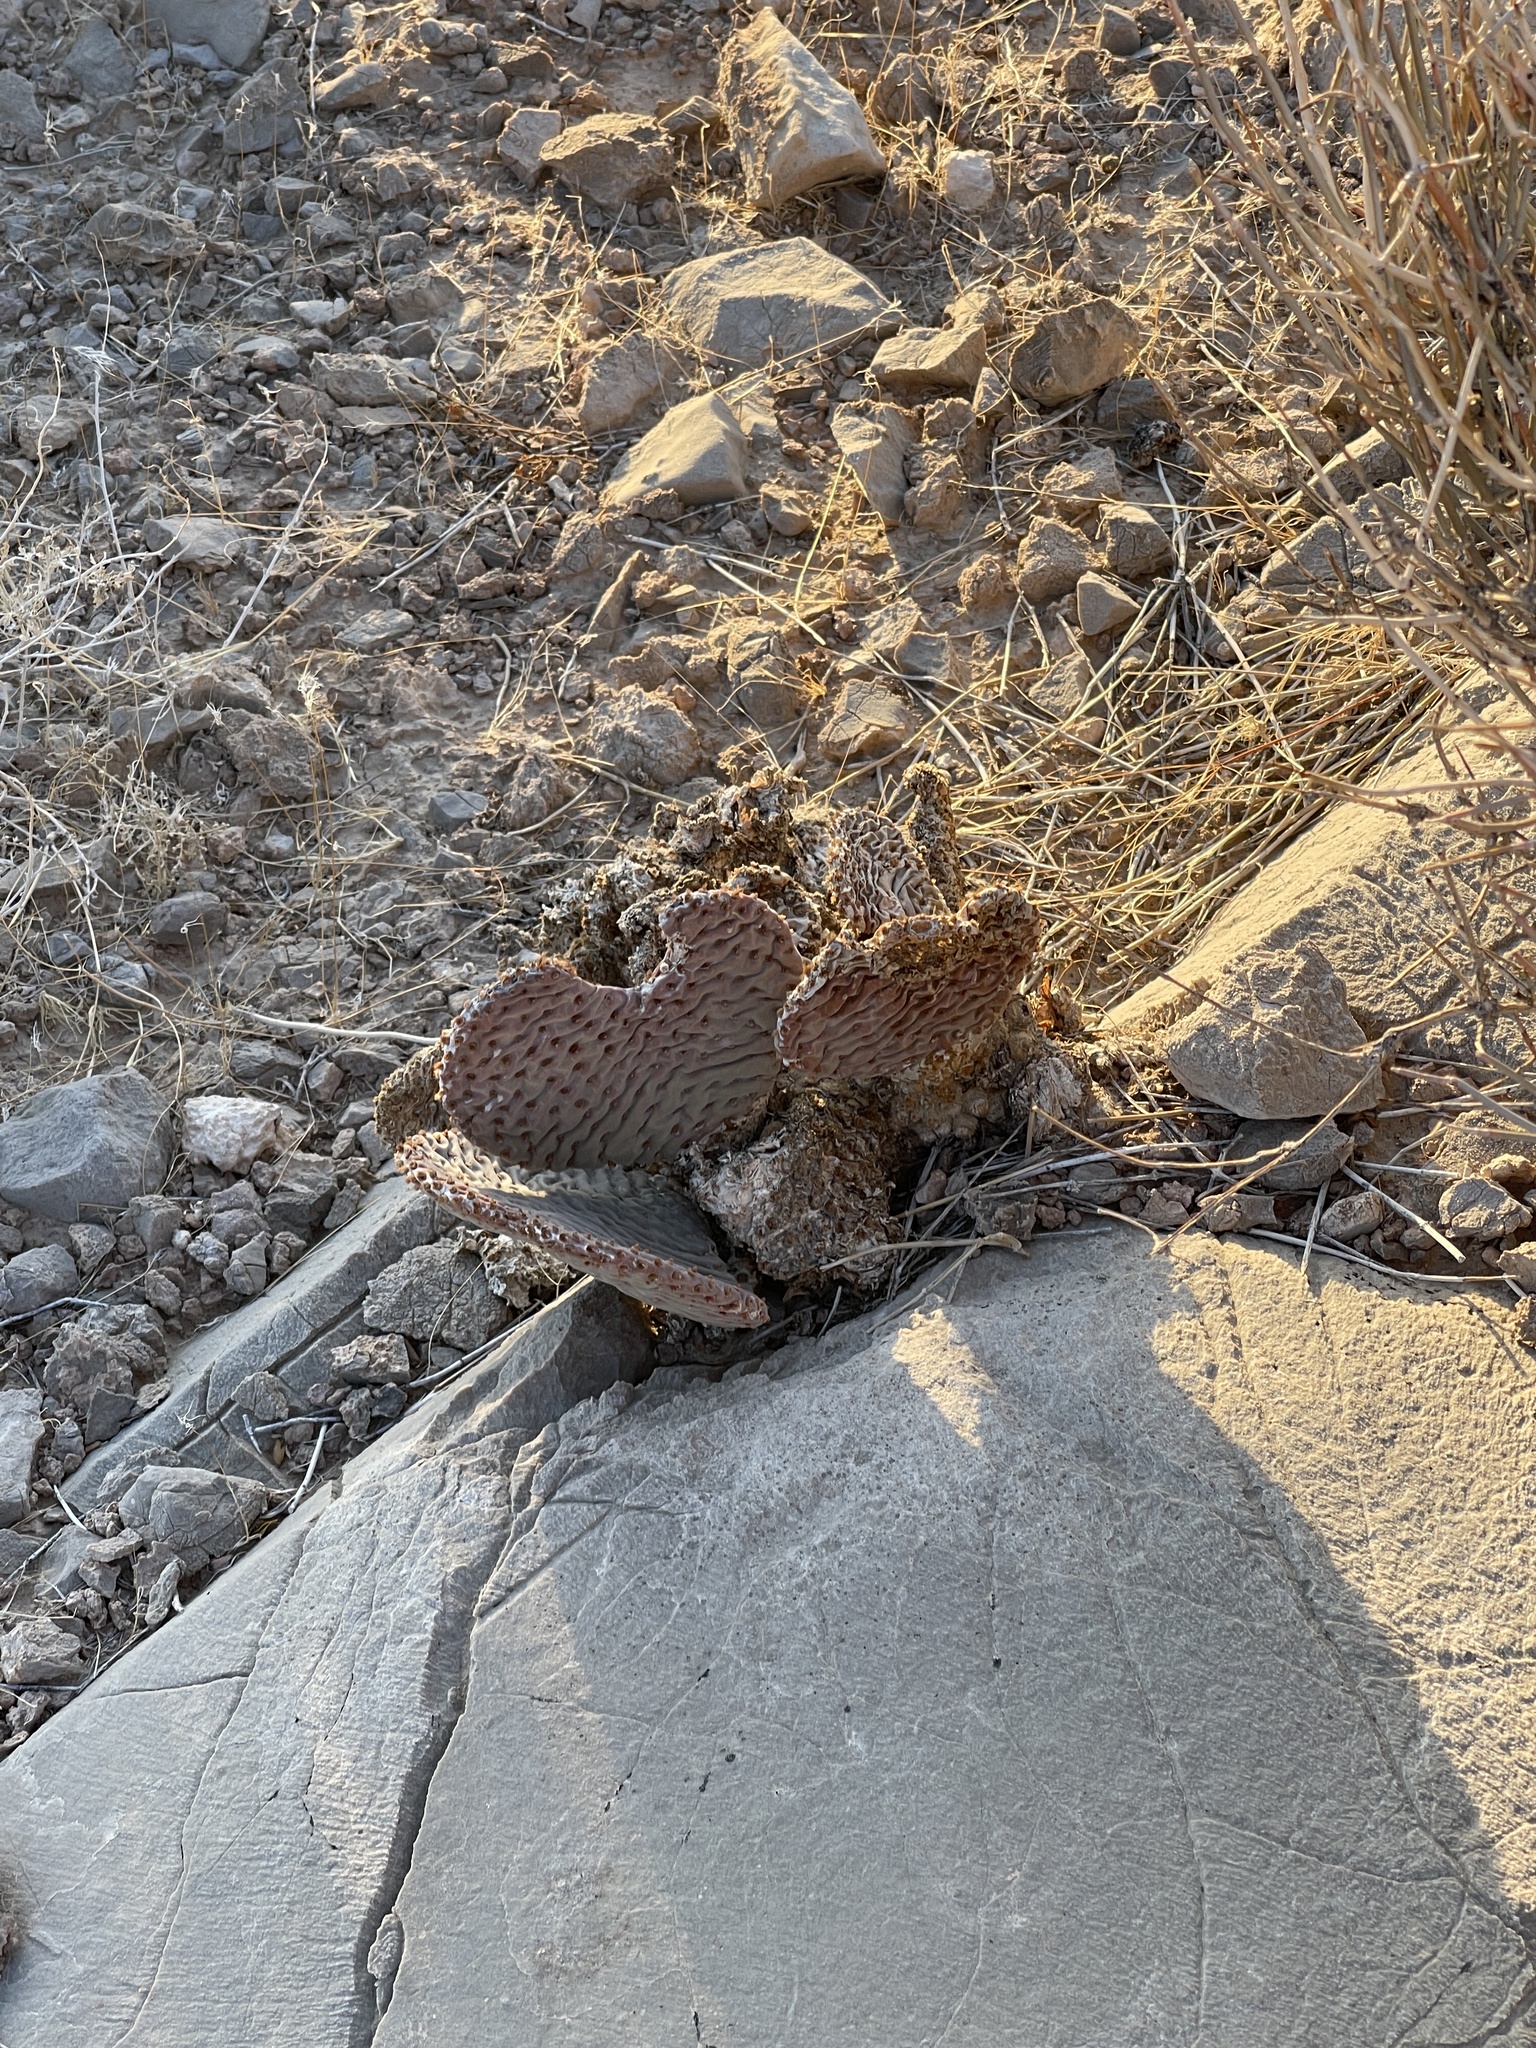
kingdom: Plantae
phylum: Tracheophyta
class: Magnoliopsida
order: Caryophyllales
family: Cactaceae
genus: Opuntia
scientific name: Opuntia basilaris
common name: Beavertail prickly-pear
